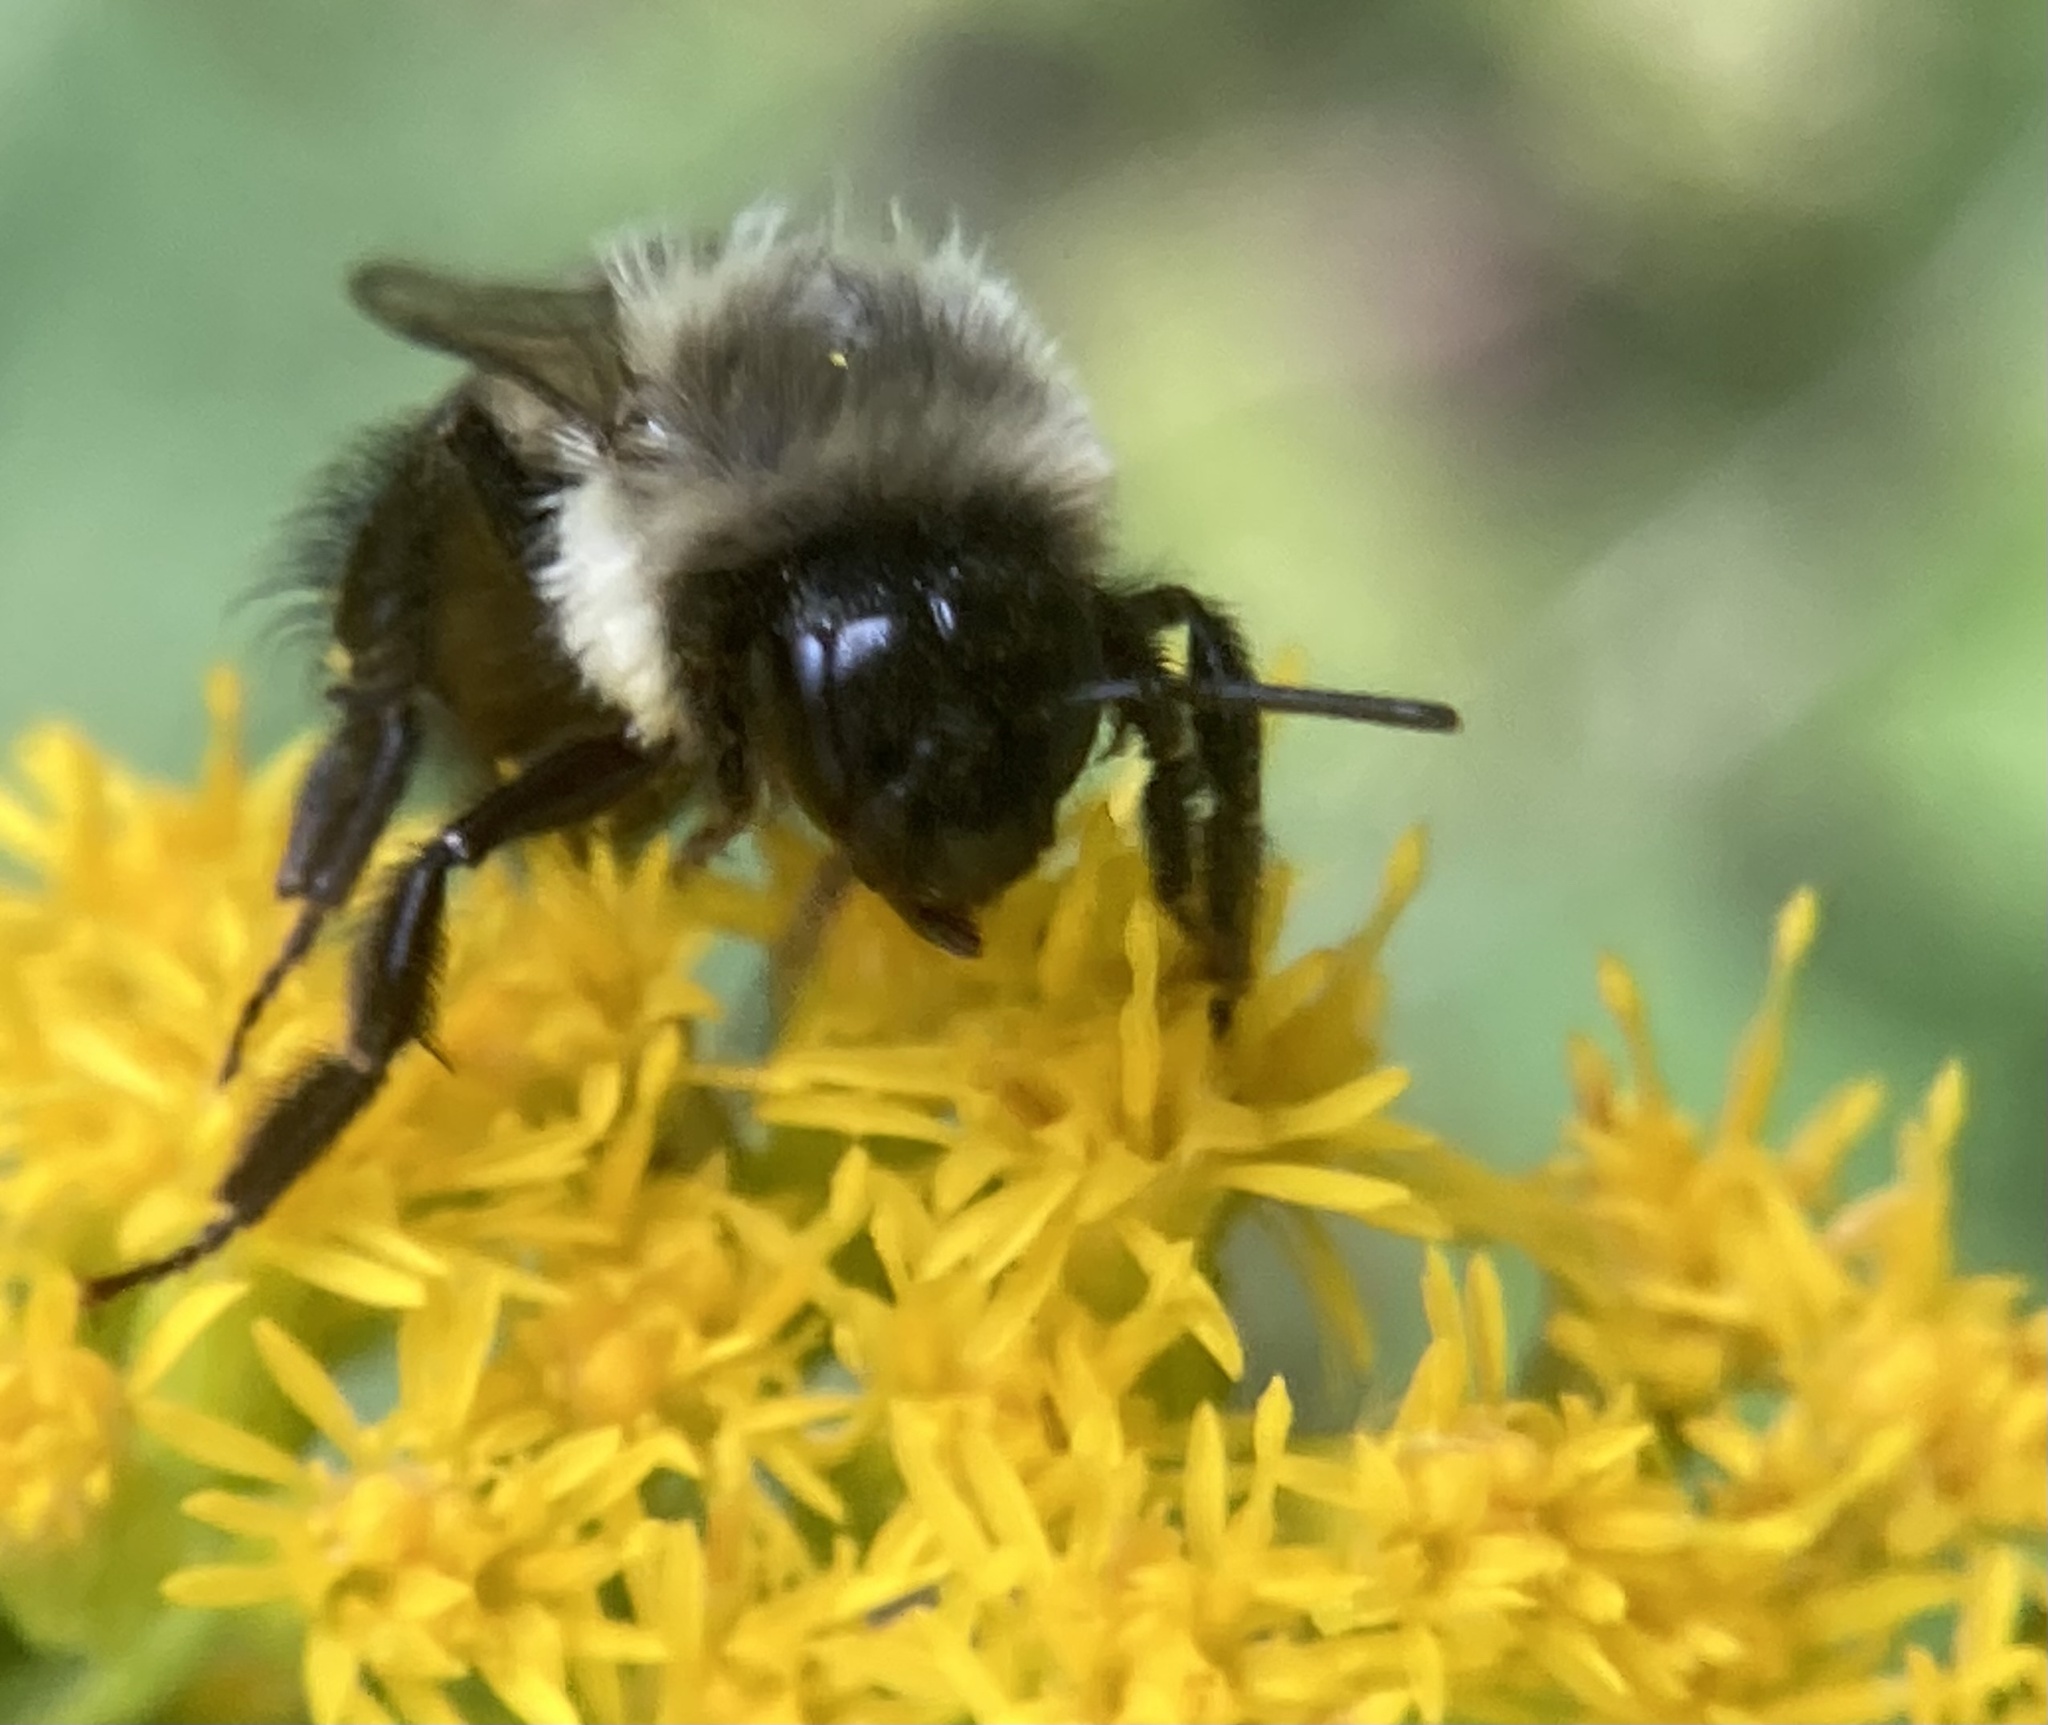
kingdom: Animalia
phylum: Arthropoda
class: Insecta
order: Hymenoptera
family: Apidae
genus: Bombus
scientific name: Bombus impatiens
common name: Common eastern bumble bee
